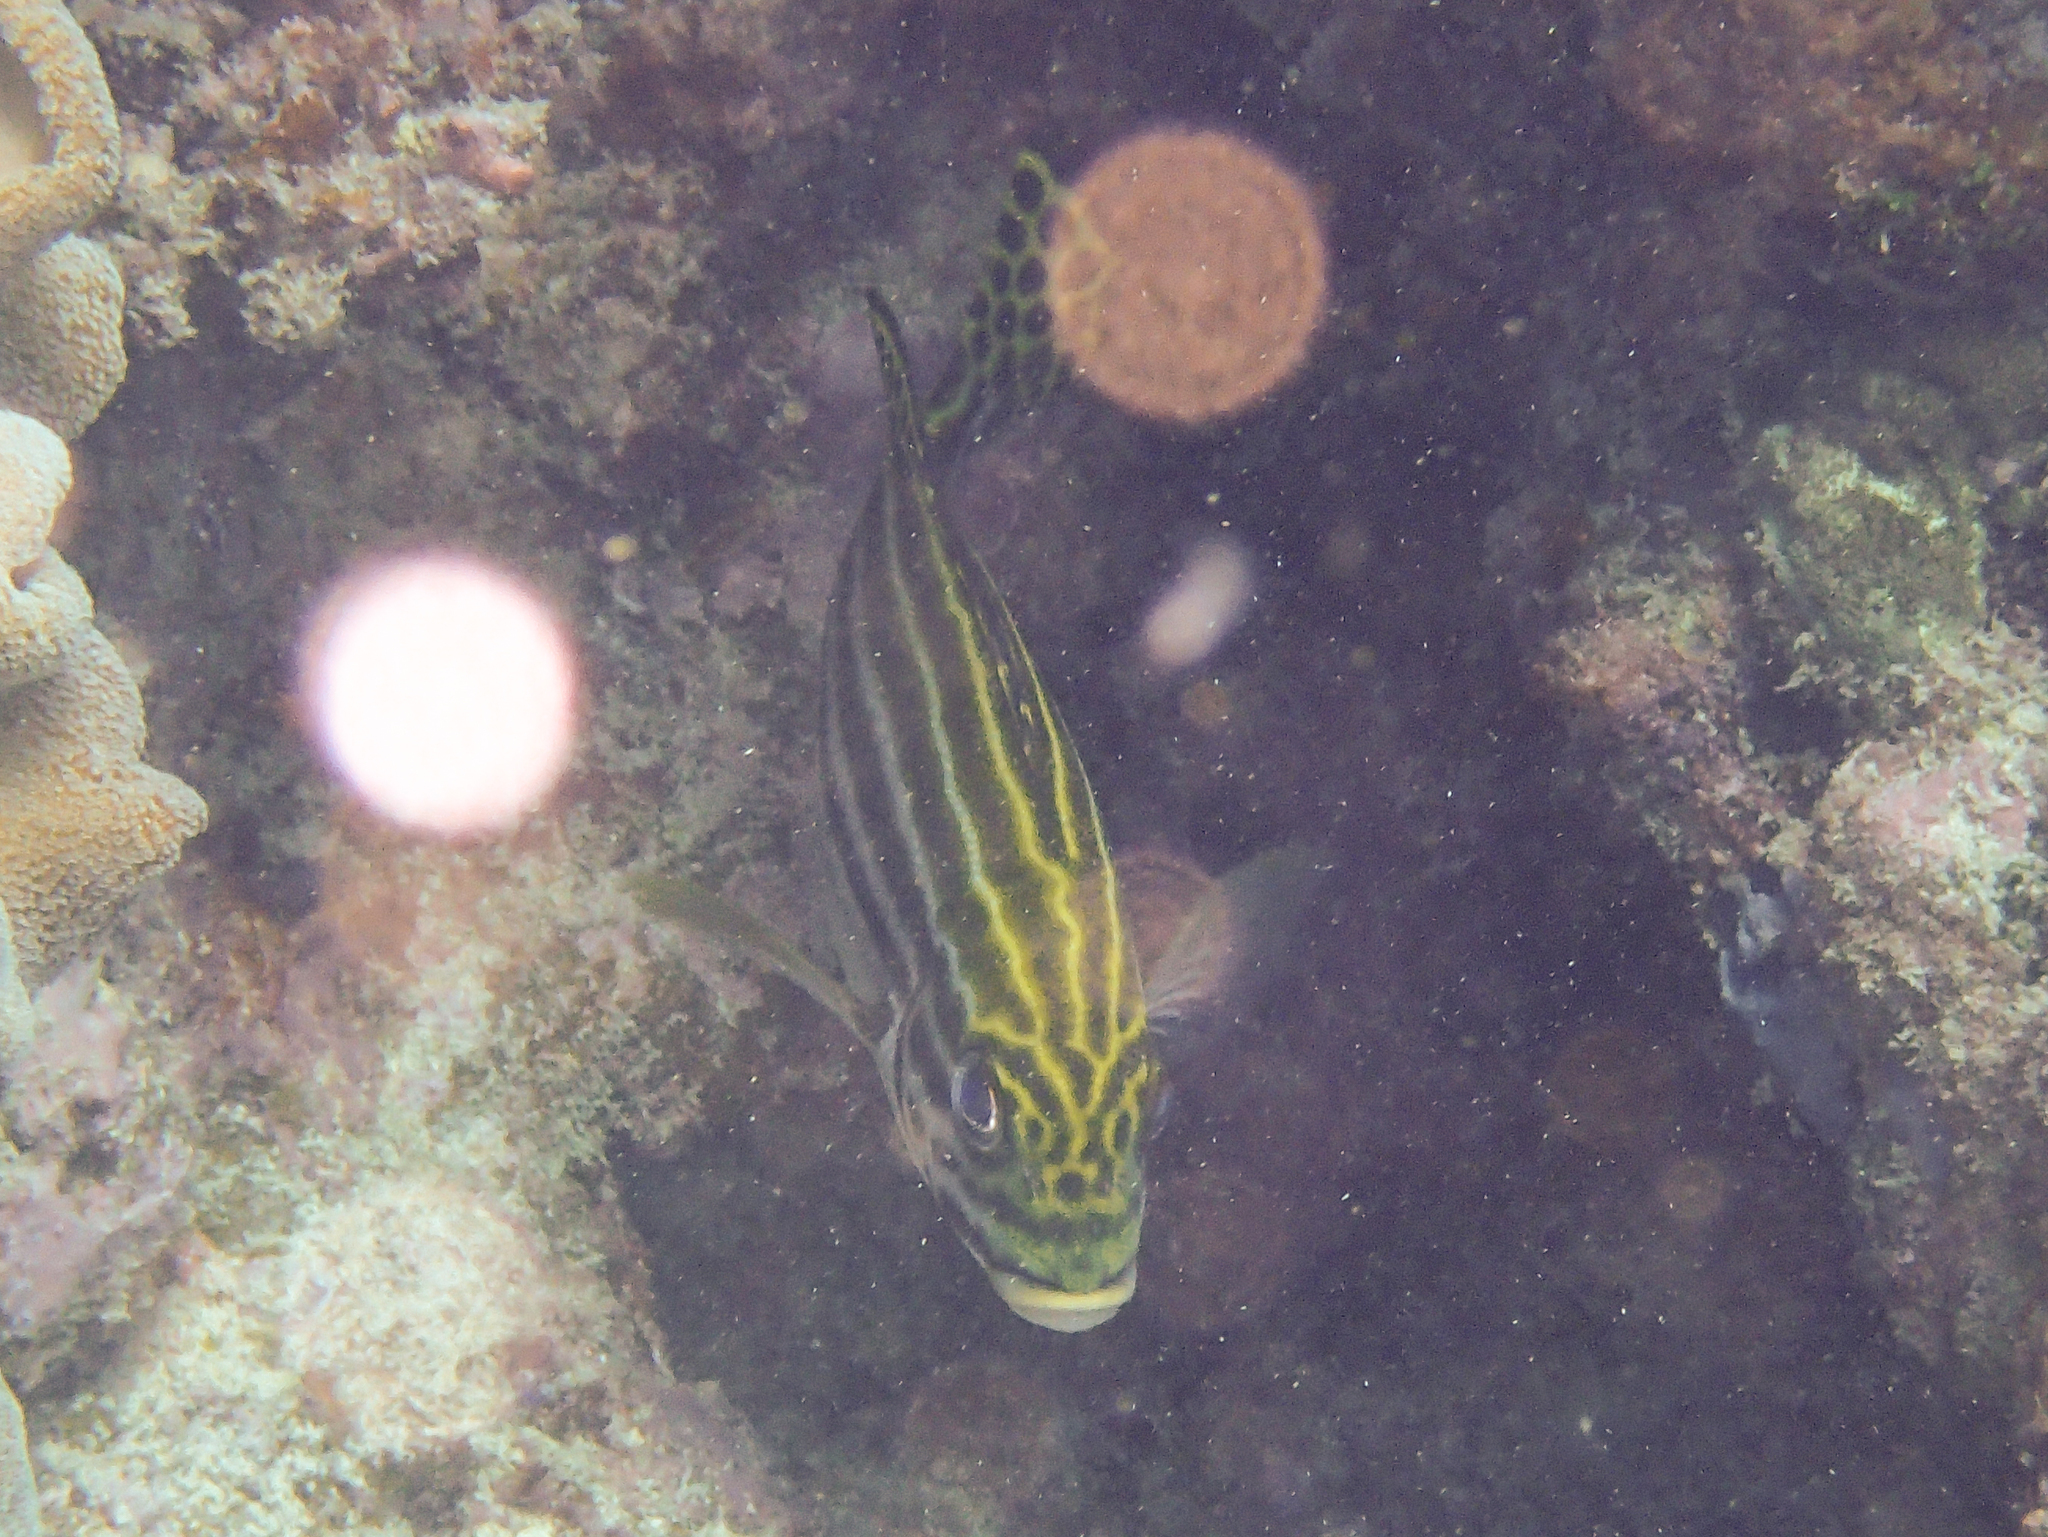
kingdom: Animalia
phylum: Chordata
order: Perciformes
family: Haemulidae
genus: Plectorhinchus
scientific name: Plectorhinchus lessonii
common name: Lesson's thicklip
